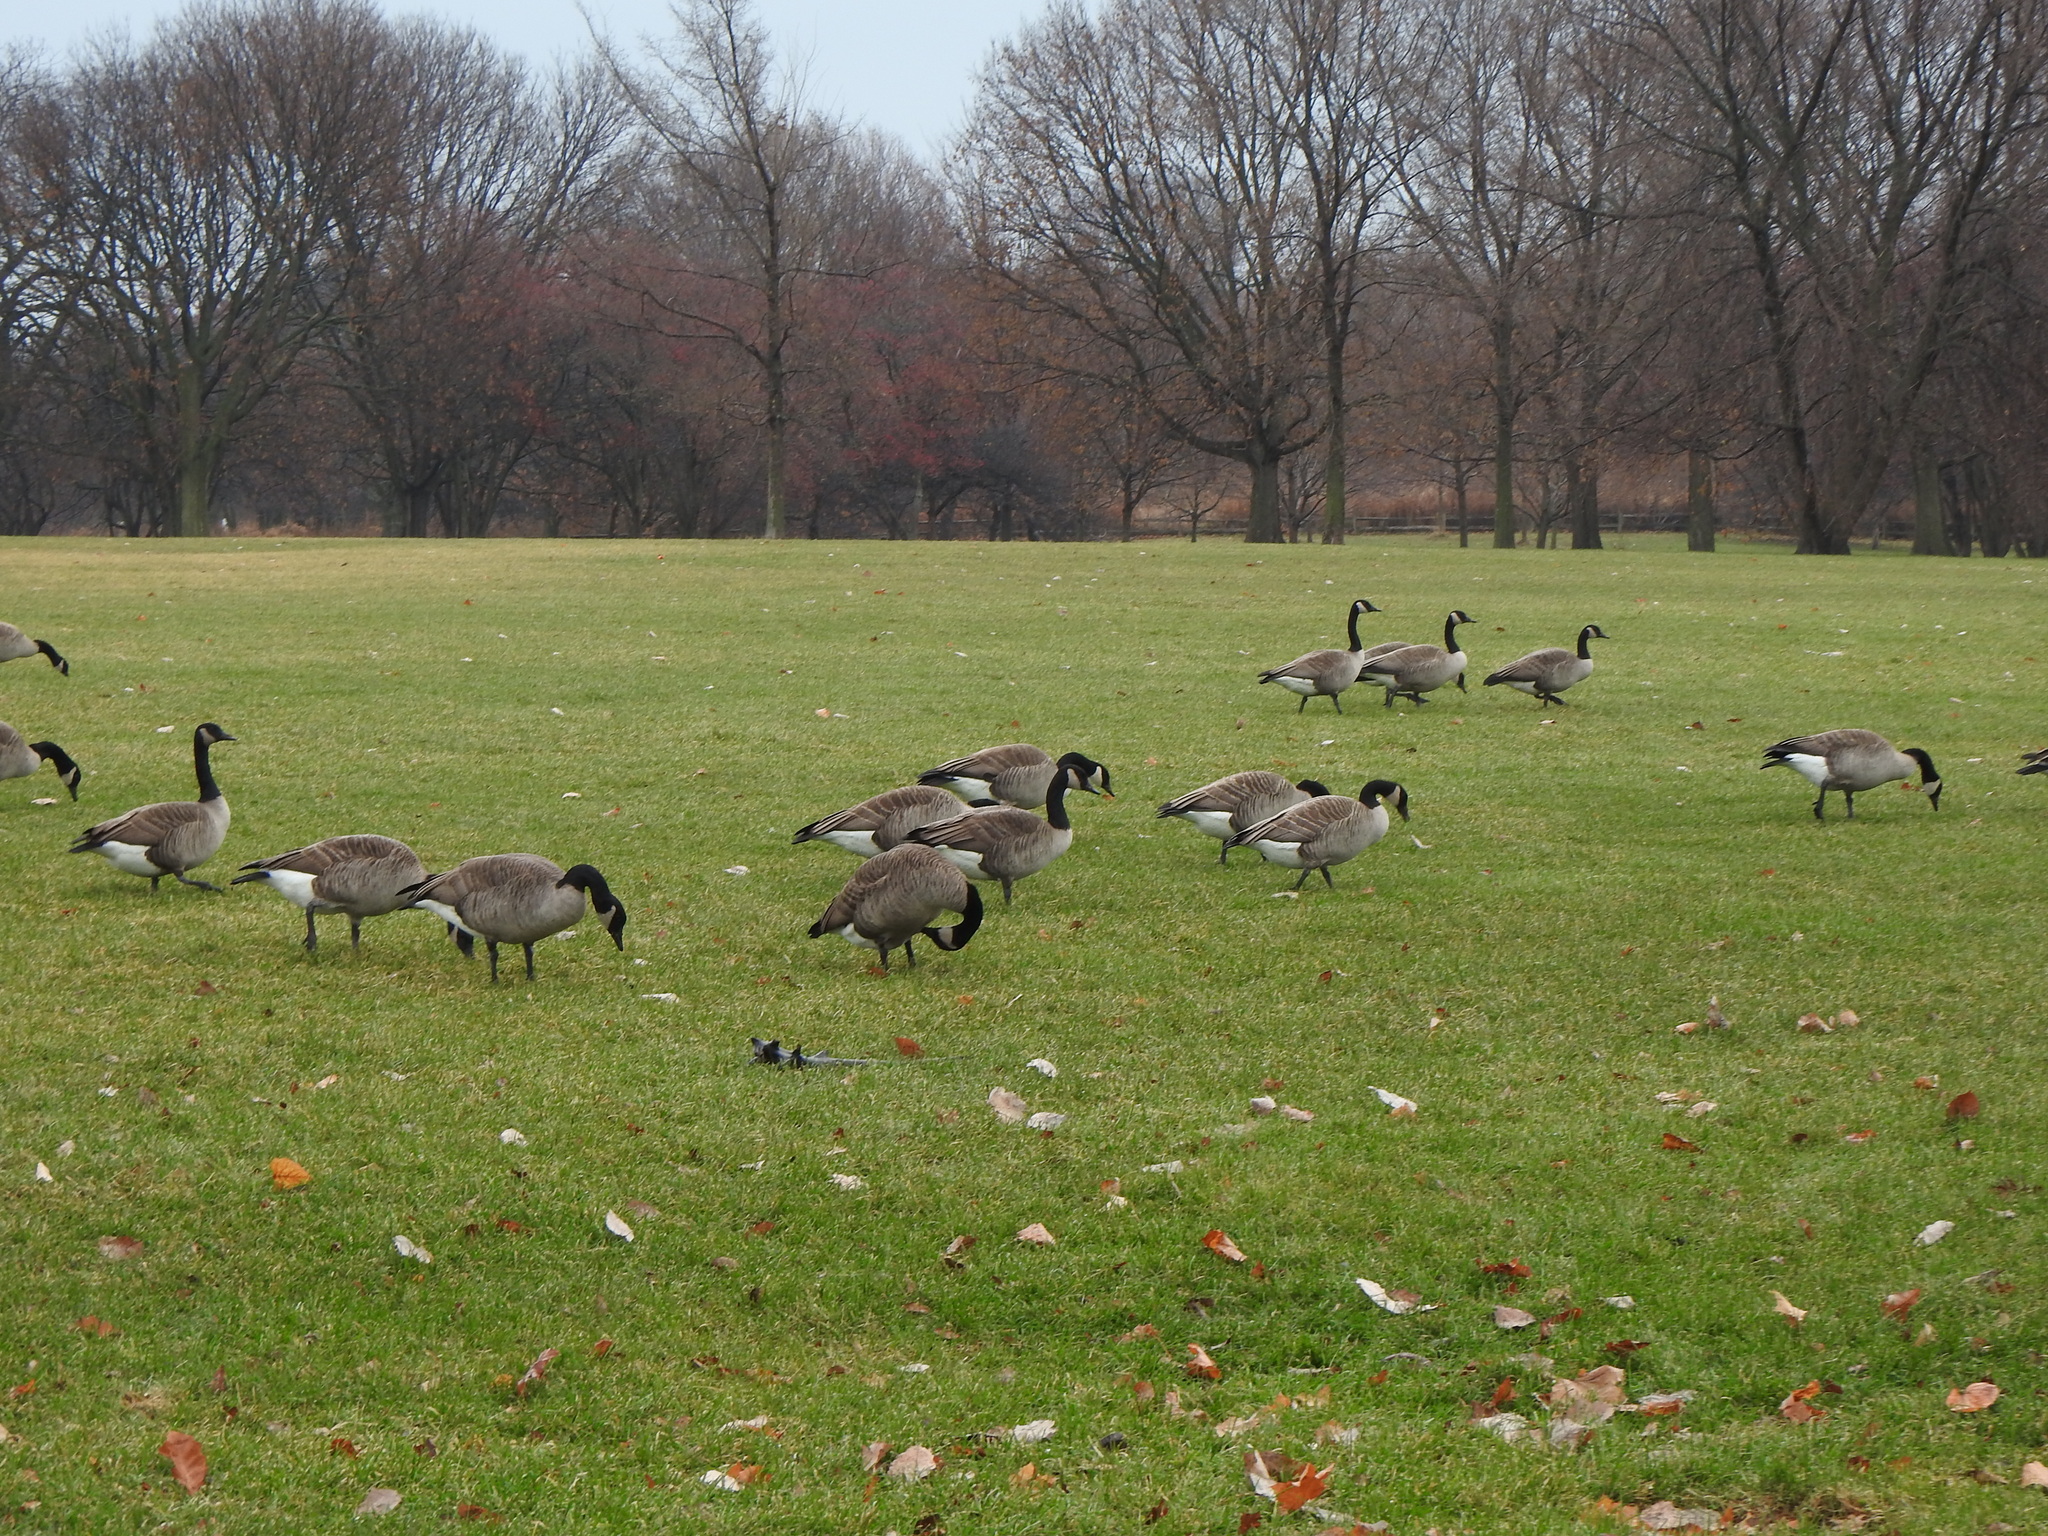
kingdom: Animalia
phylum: Chordata
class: Aves
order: Anseriformes
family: Anatidae
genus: Branta
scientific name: Branta canadensis
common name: Canada goose
